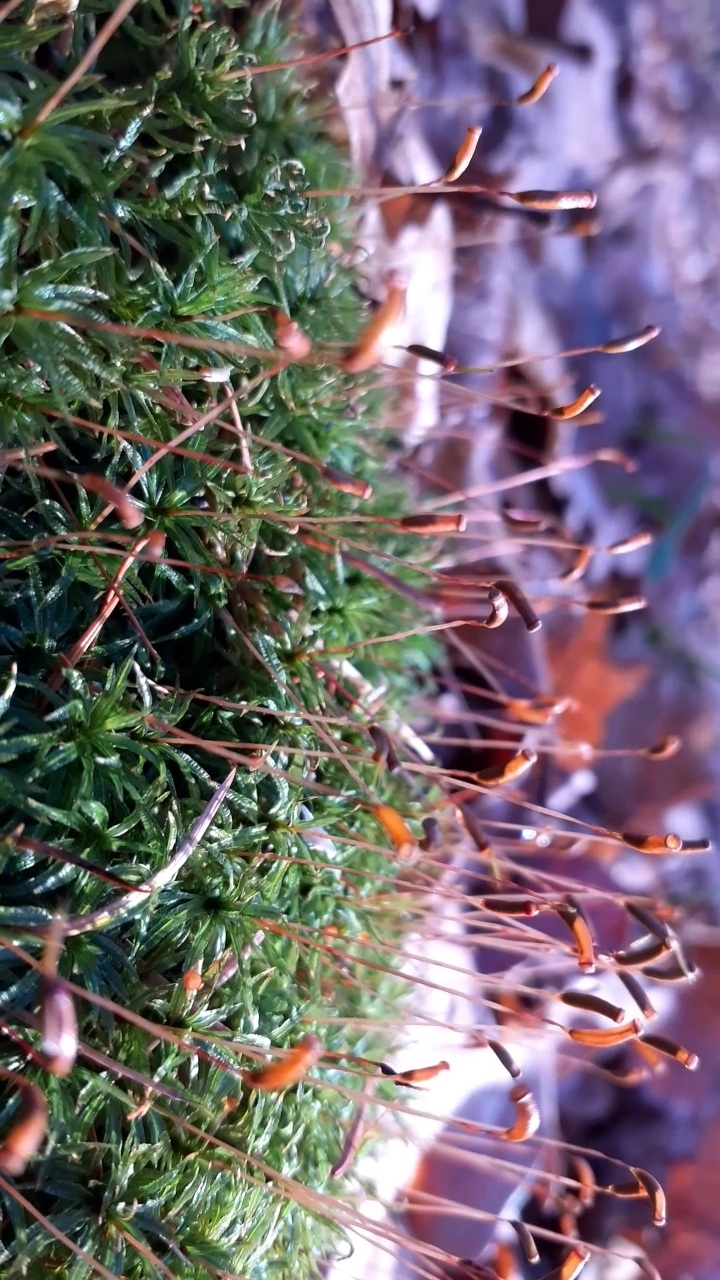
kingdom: Plantae
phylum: Bryophyta
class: Polytrichopsida
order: Polytrichales
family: Polytrichaceae
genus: Atrichum
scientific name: Atrichum undulatum
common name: Common smoothcap
